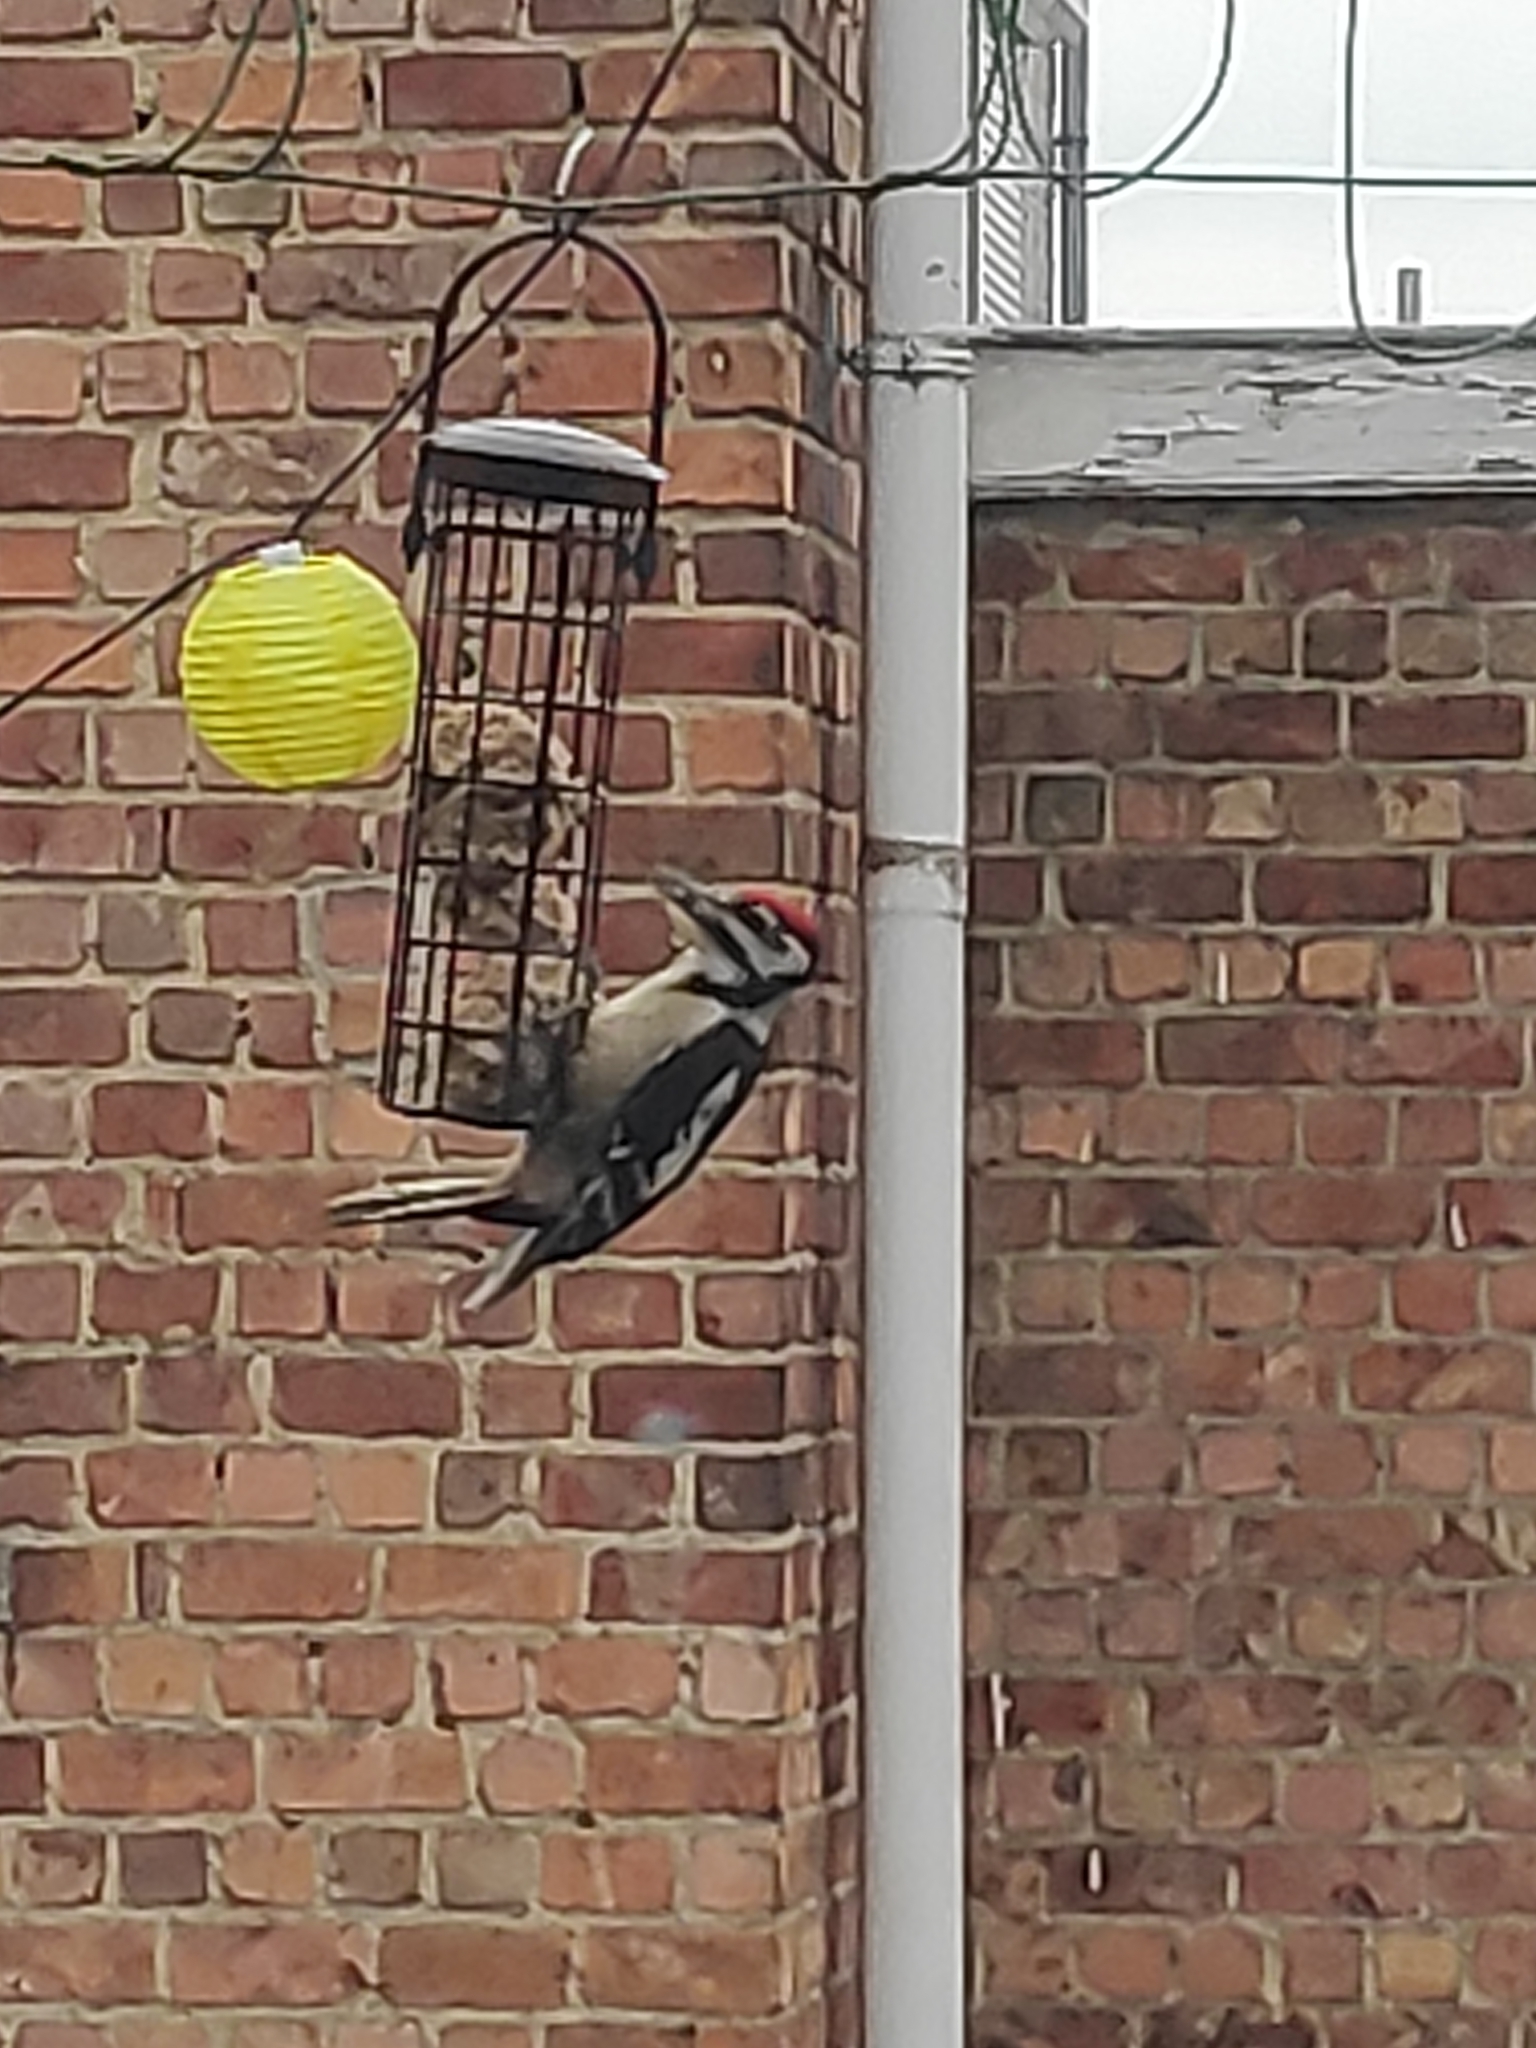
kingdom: Animalia
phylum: Chordata
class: Aves
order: Piciformes
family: Picidae
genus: Dendrocopos
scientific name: Dendrocopos major
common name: Great spotted woodpecker
